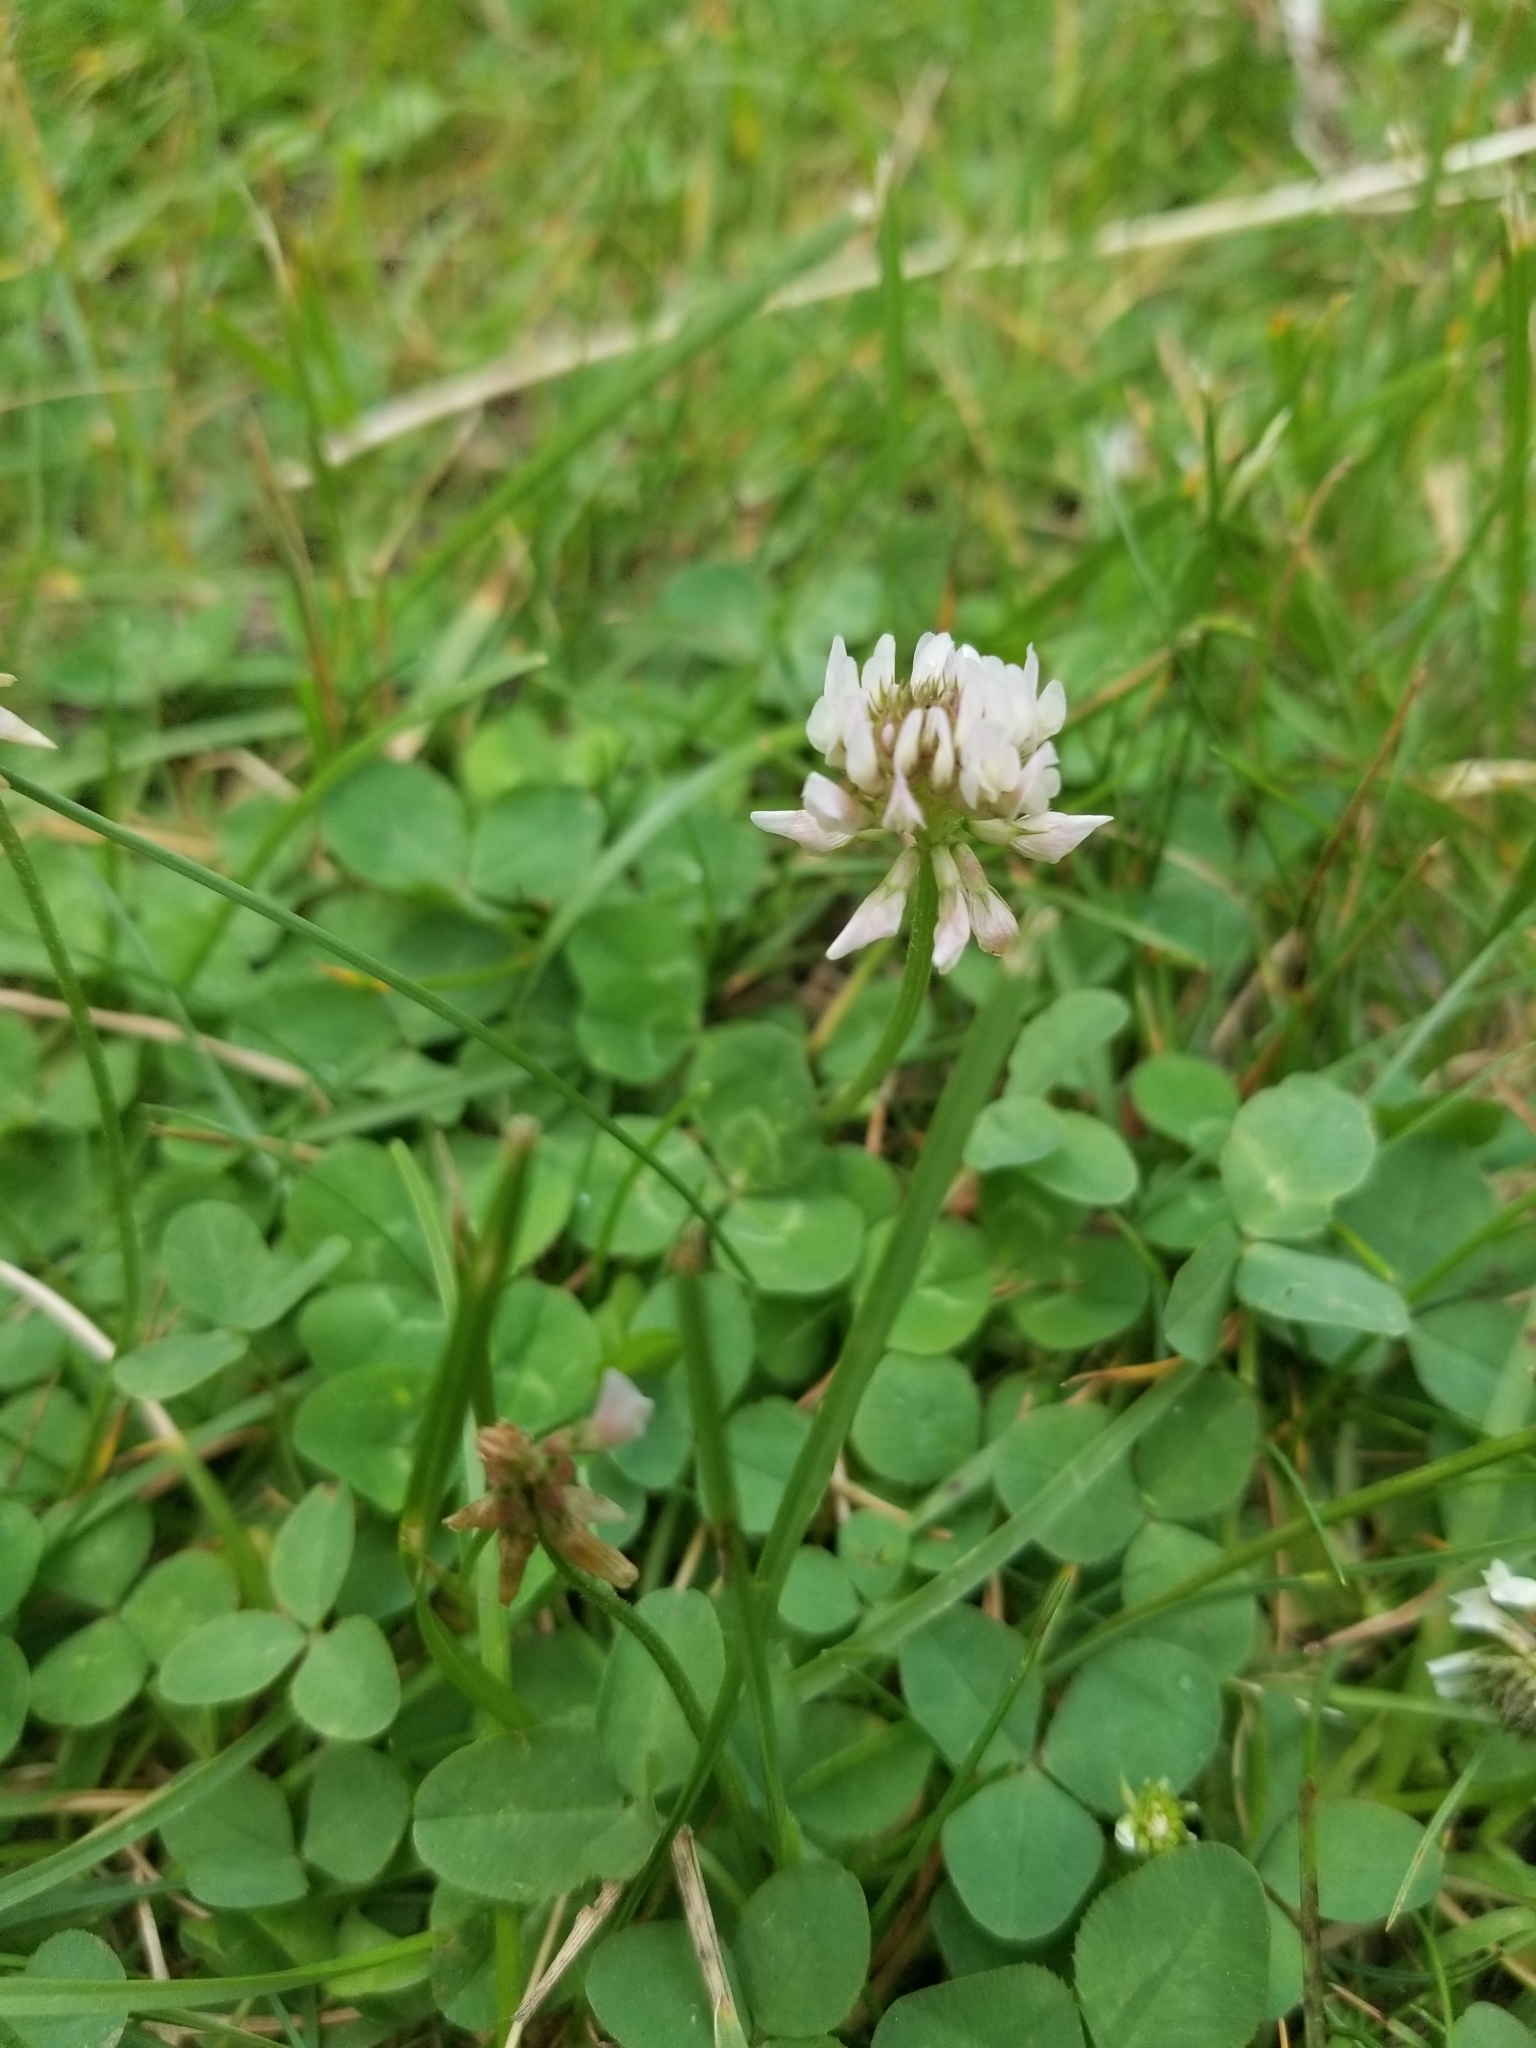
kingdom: Plantae
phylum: Tracheophyta
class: Magnoliopsida
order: Fabales
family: Fabaceae
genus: Trifolium
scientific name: Trifolium repens
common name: White clover
